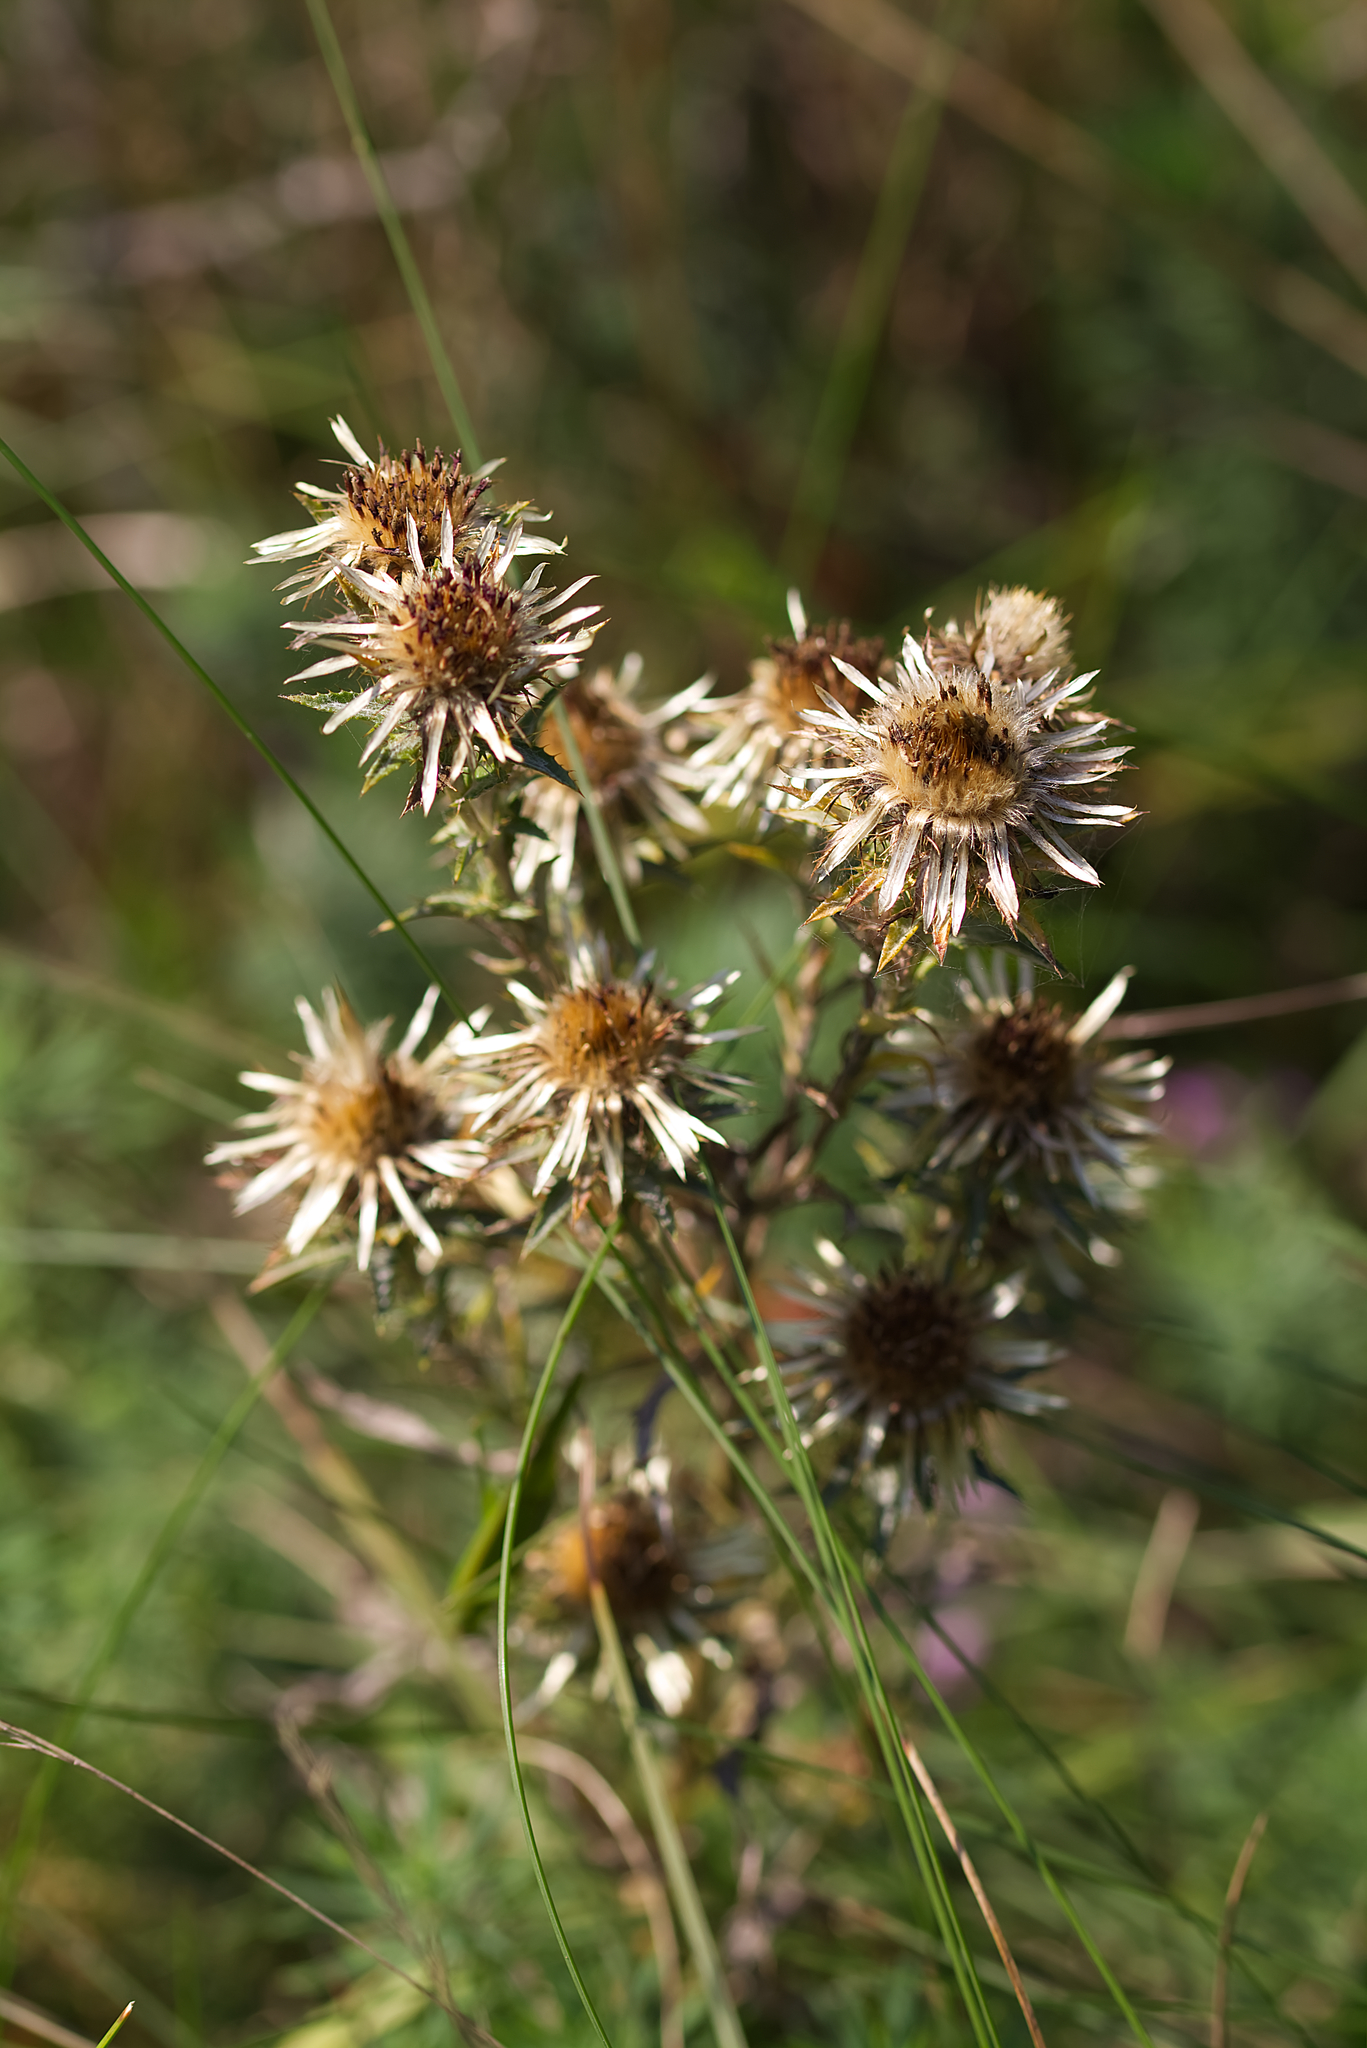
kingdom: Plantae
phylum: Tracheophyta
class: Magnoliopsida
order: Asterales
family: Asteraceae
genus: Carlina
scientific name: Carlina biebersteinii
